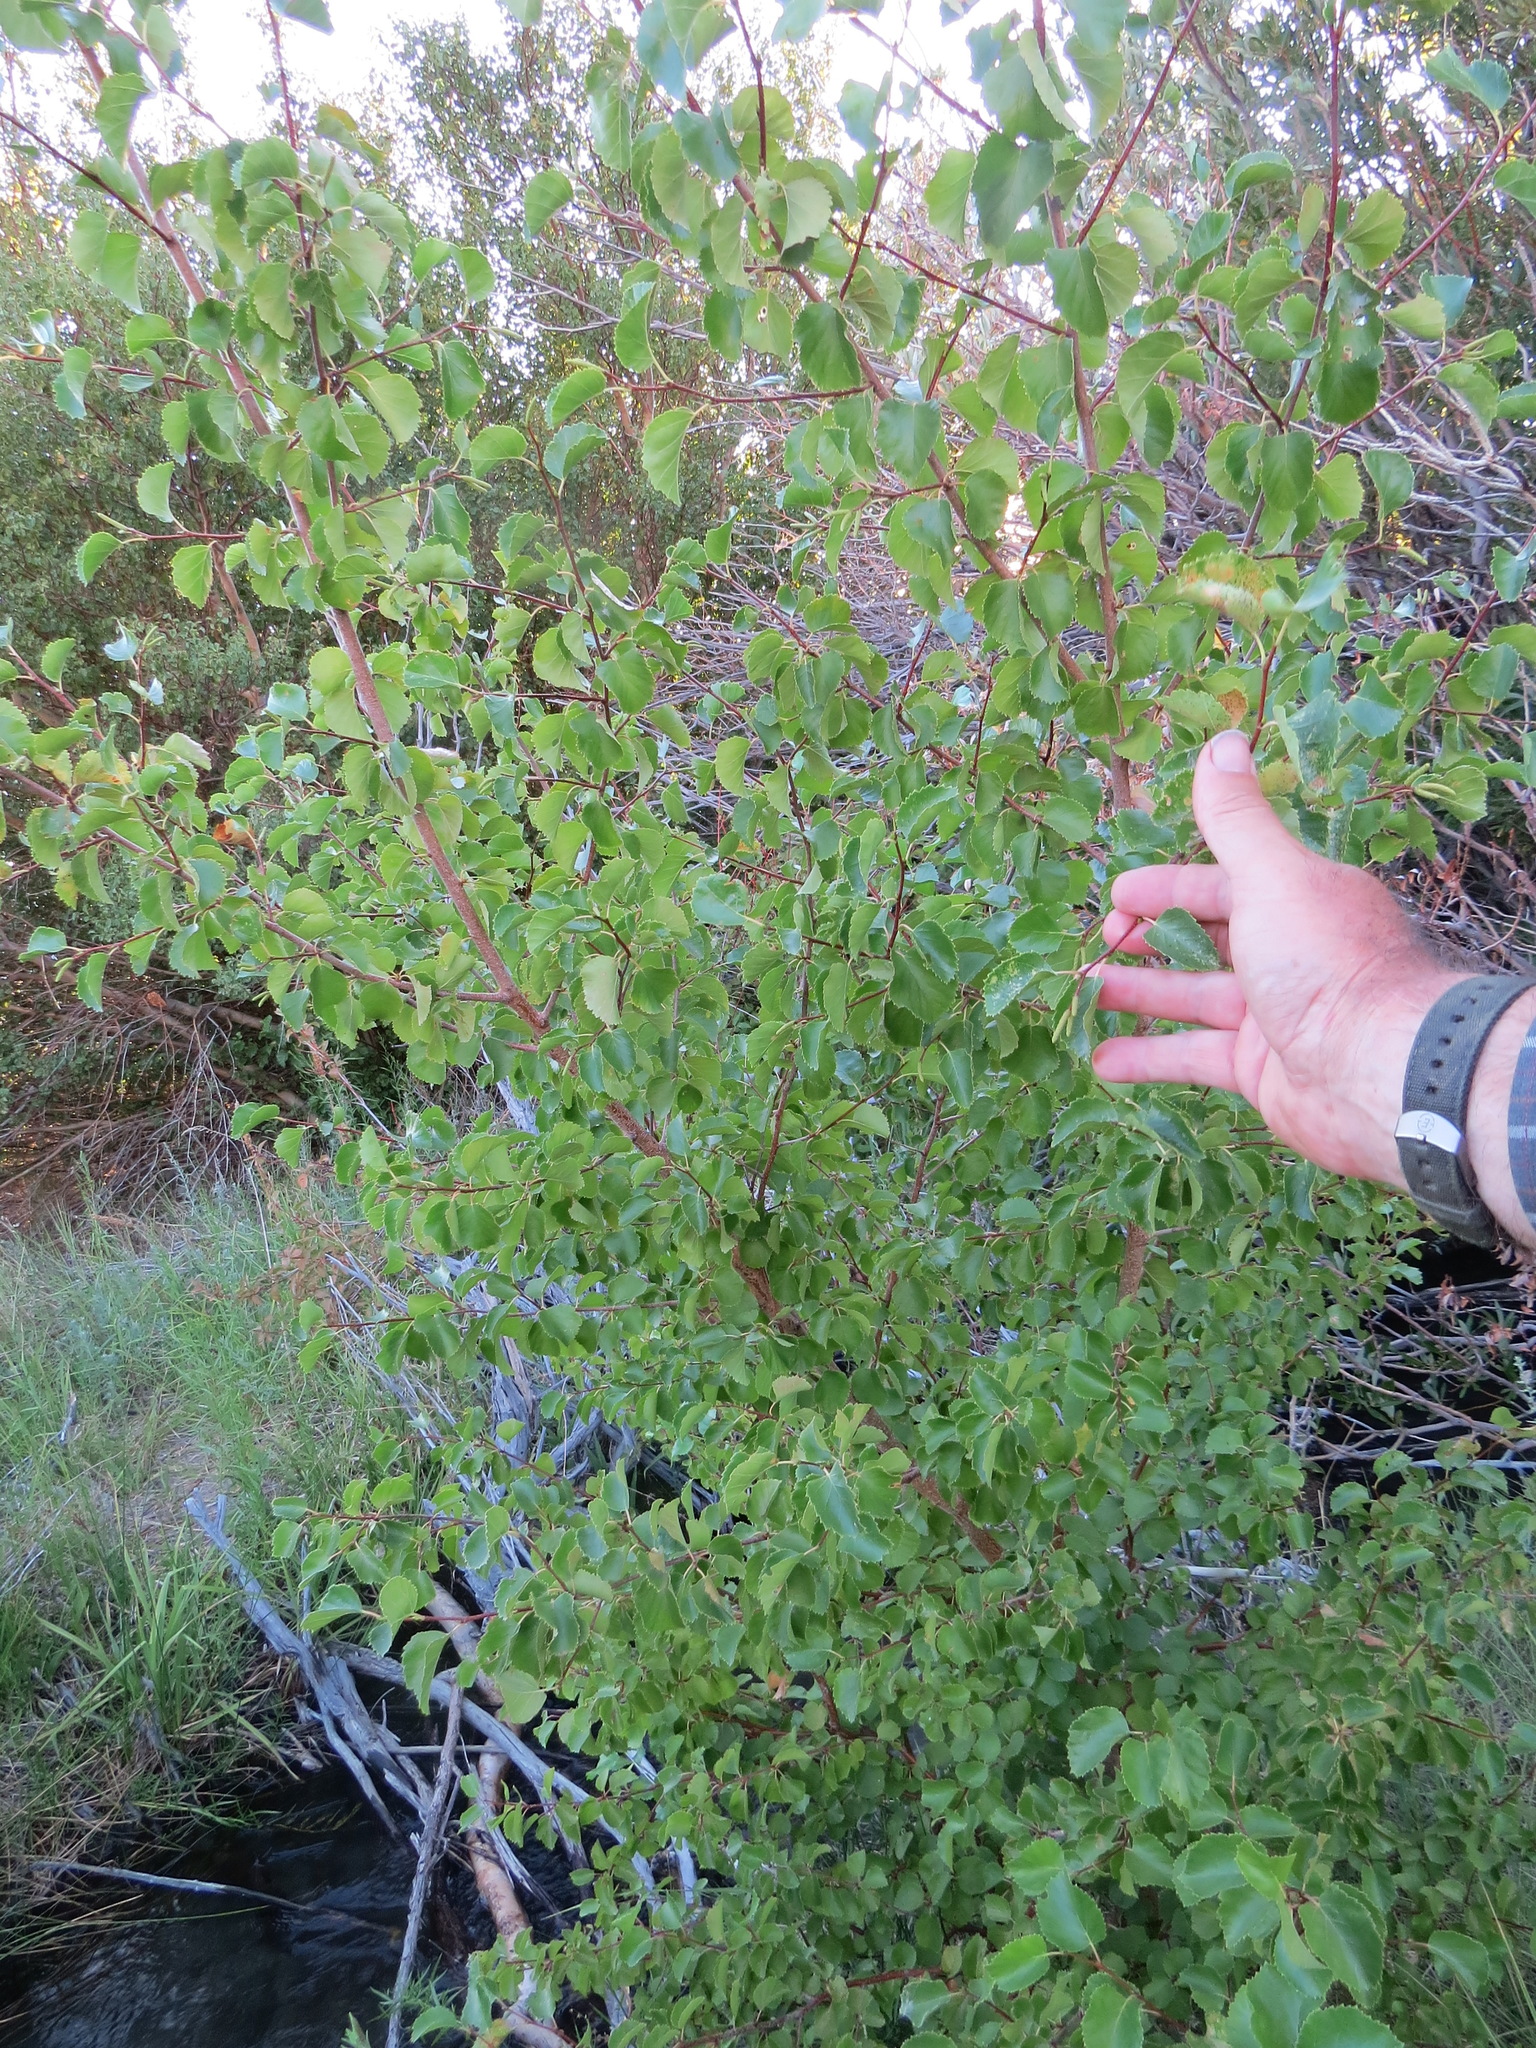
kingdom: Plantae
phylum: Tracheophyta
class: Magnoliopsida
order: Fagales
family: Betulaceae
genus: Betula
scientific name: Betula occidentalis
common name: River birch
